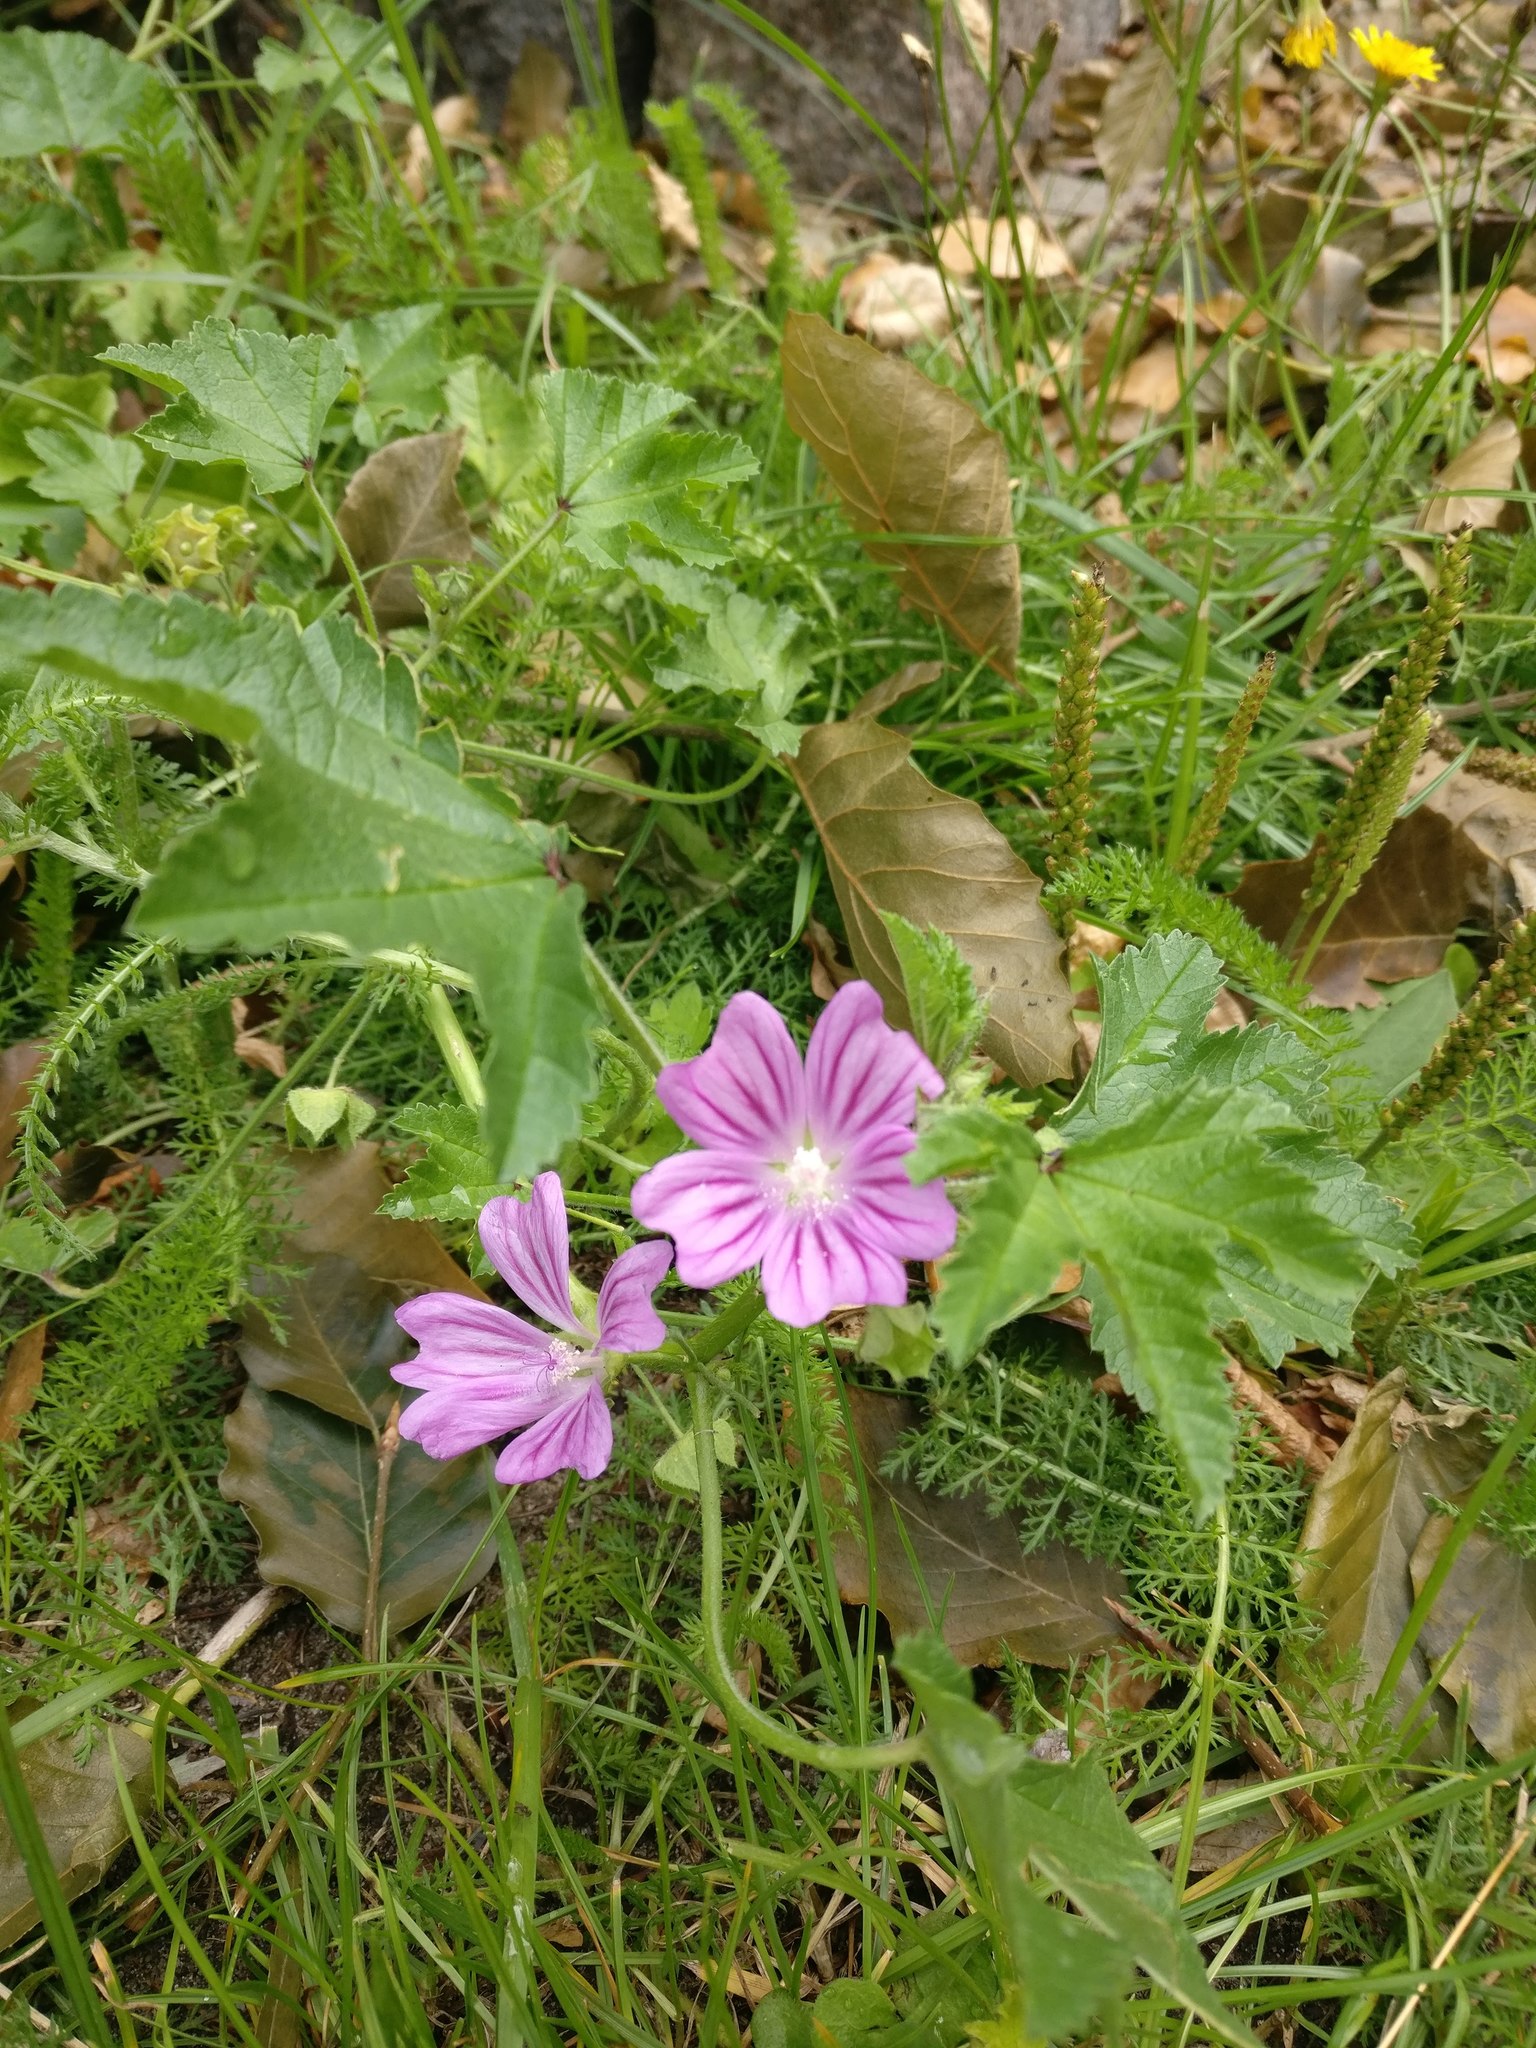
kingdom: Plantae
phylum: Tracheophyta
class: Magnoliopsida
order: Malvales
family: Malvaceae
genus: Malva
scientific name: Malva sylvestris
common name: Common mallow
